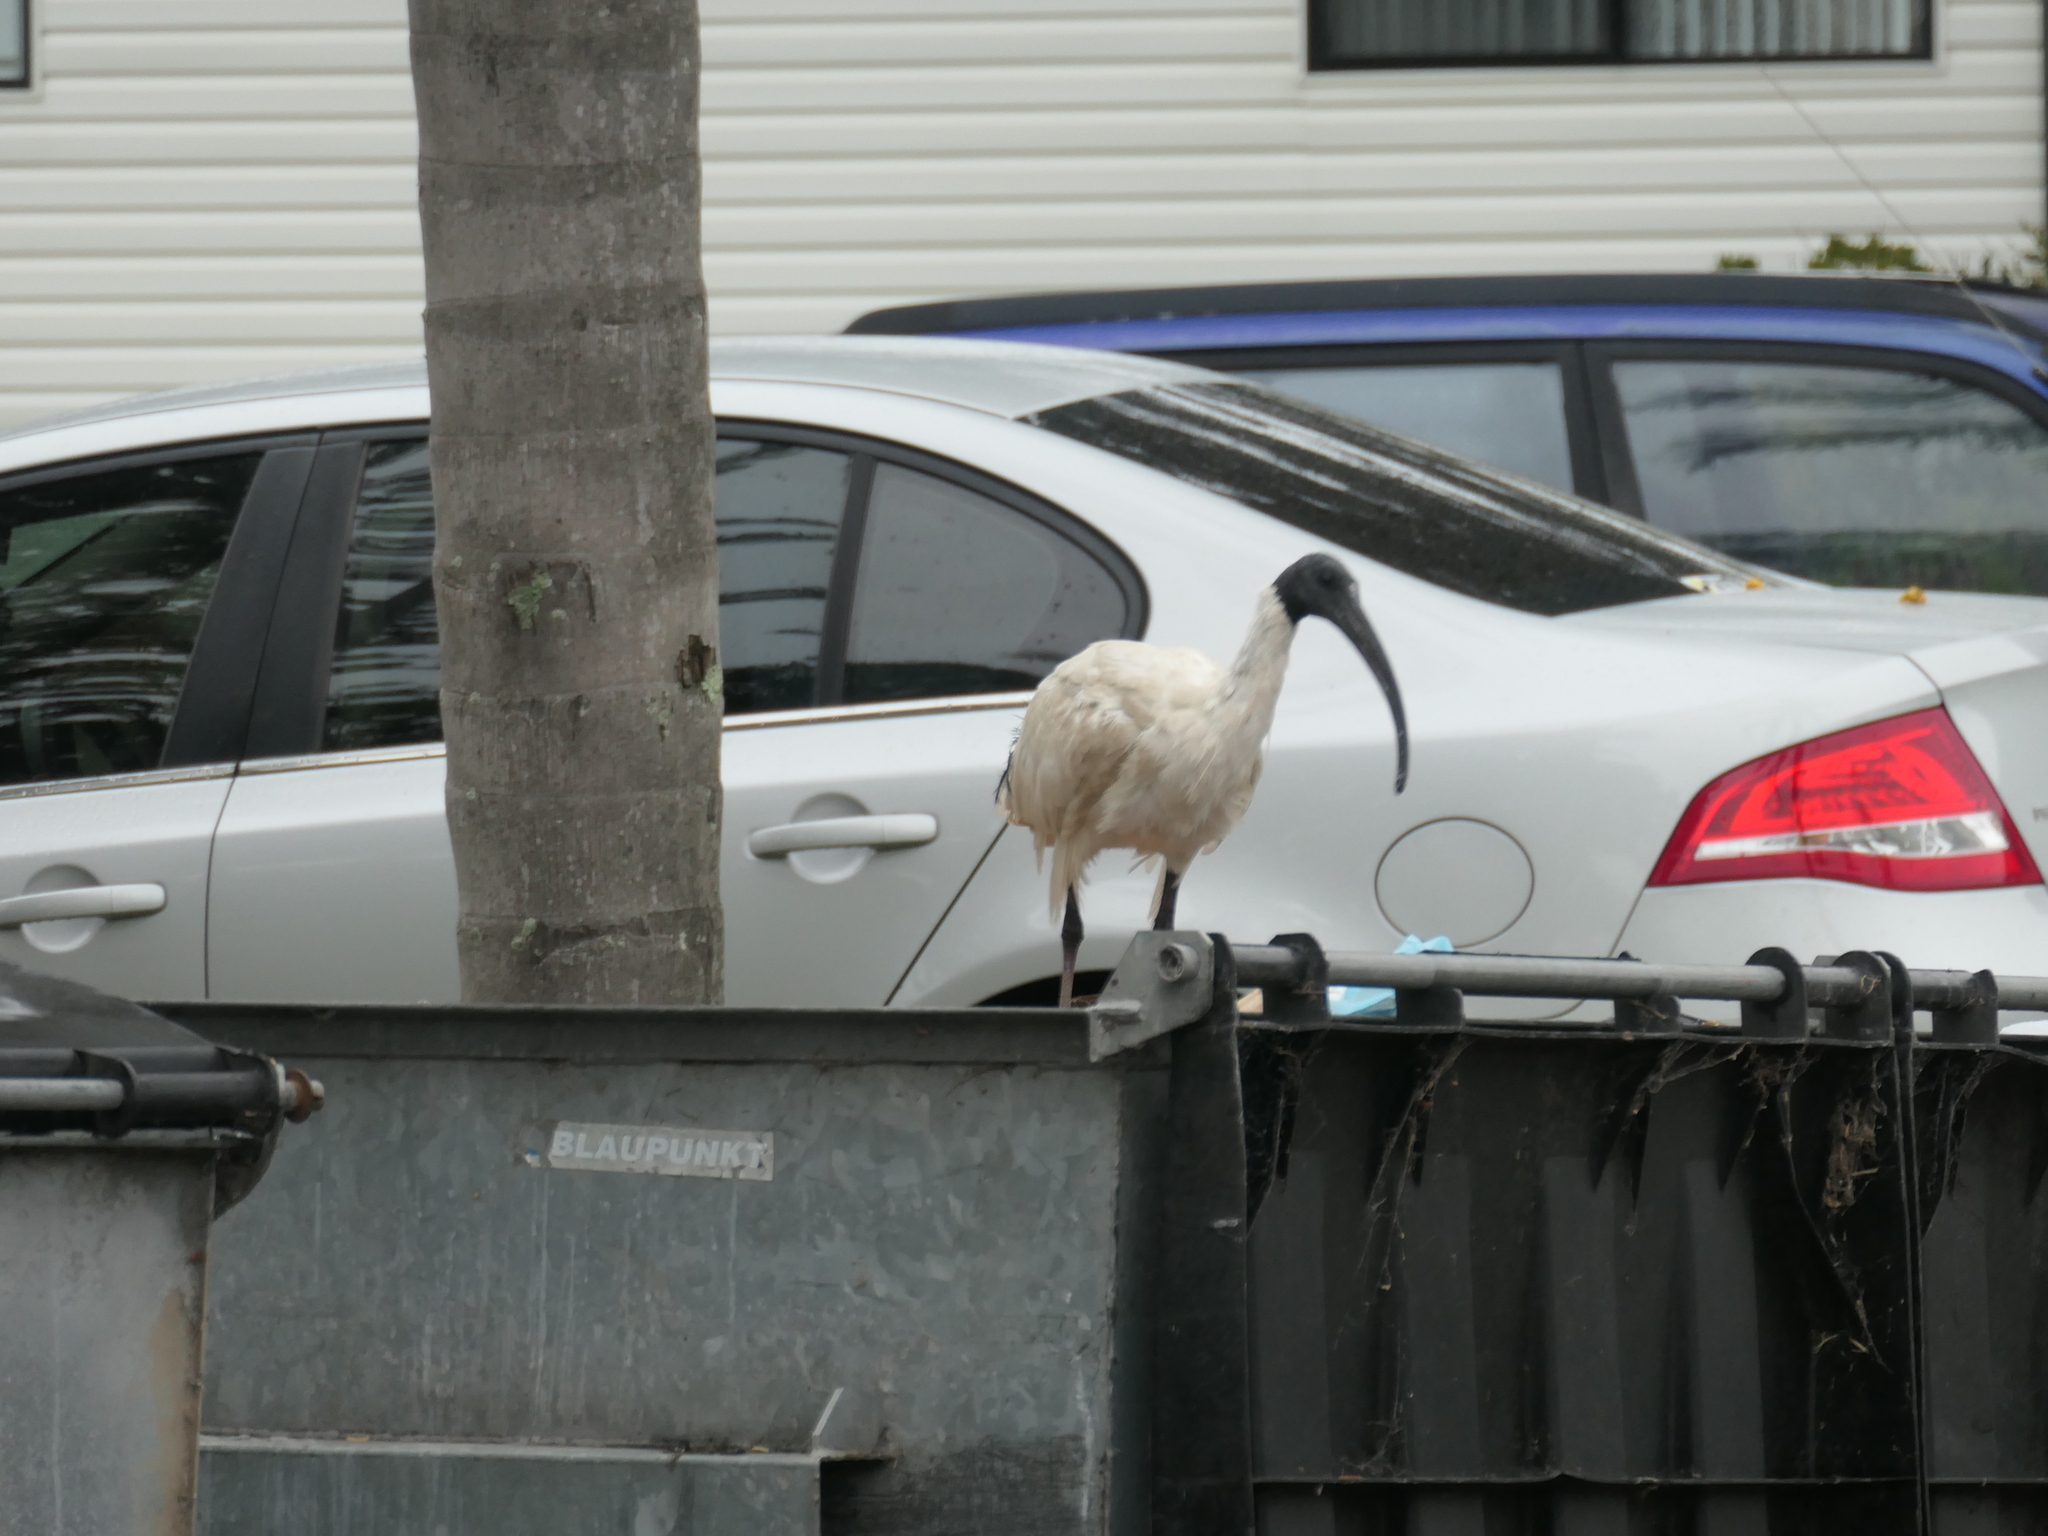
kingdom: Animalia
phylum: Chordata
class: Aves
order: Pelecaniformes
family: Threskiornithidae
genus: Threskiornis
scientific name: Threskiornis molucca
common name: Australian white ibis
